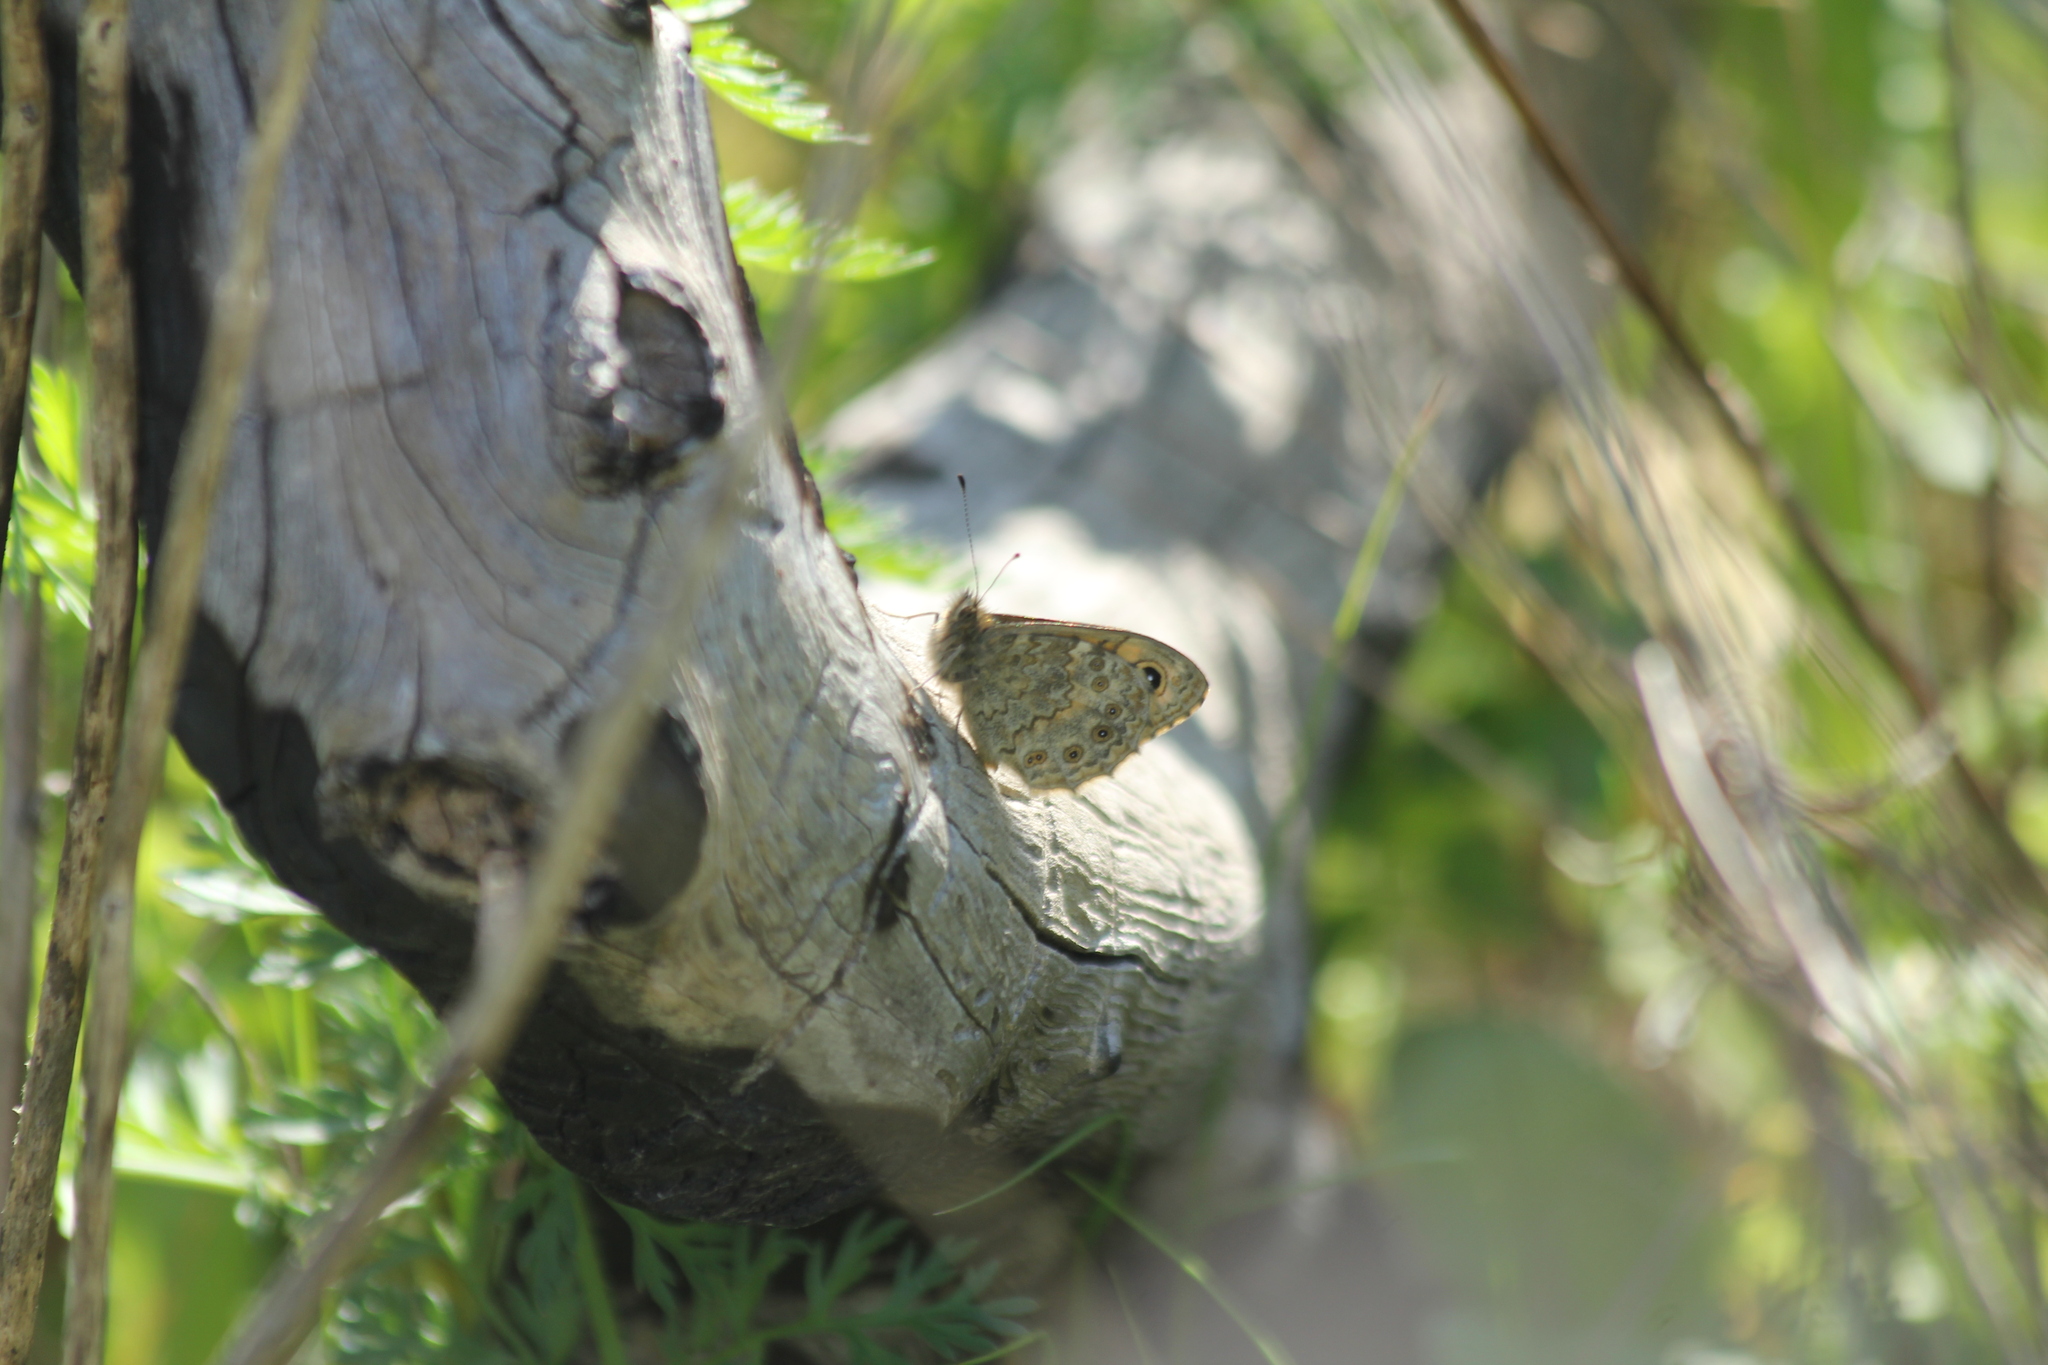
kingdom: Animalia
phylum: Arthropoda
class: Insecta
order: Lepidoptera
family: Nymphalidae
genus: Pararge
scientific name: Pararge Lasiommata megera
